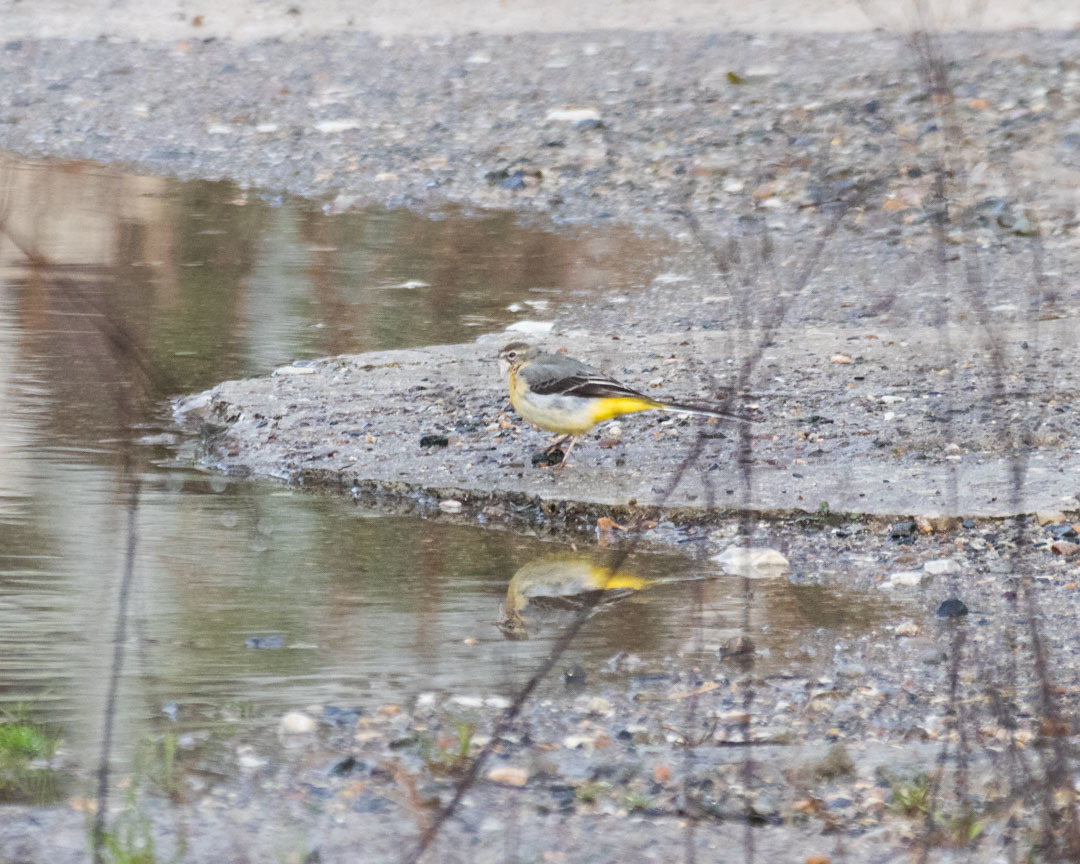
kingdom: Animalia
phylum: Chordata
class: Aves
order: Passeriformes
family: Motacillidae
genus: Motacilla
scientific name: Motacilla cinerea
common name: Grey wagtail
